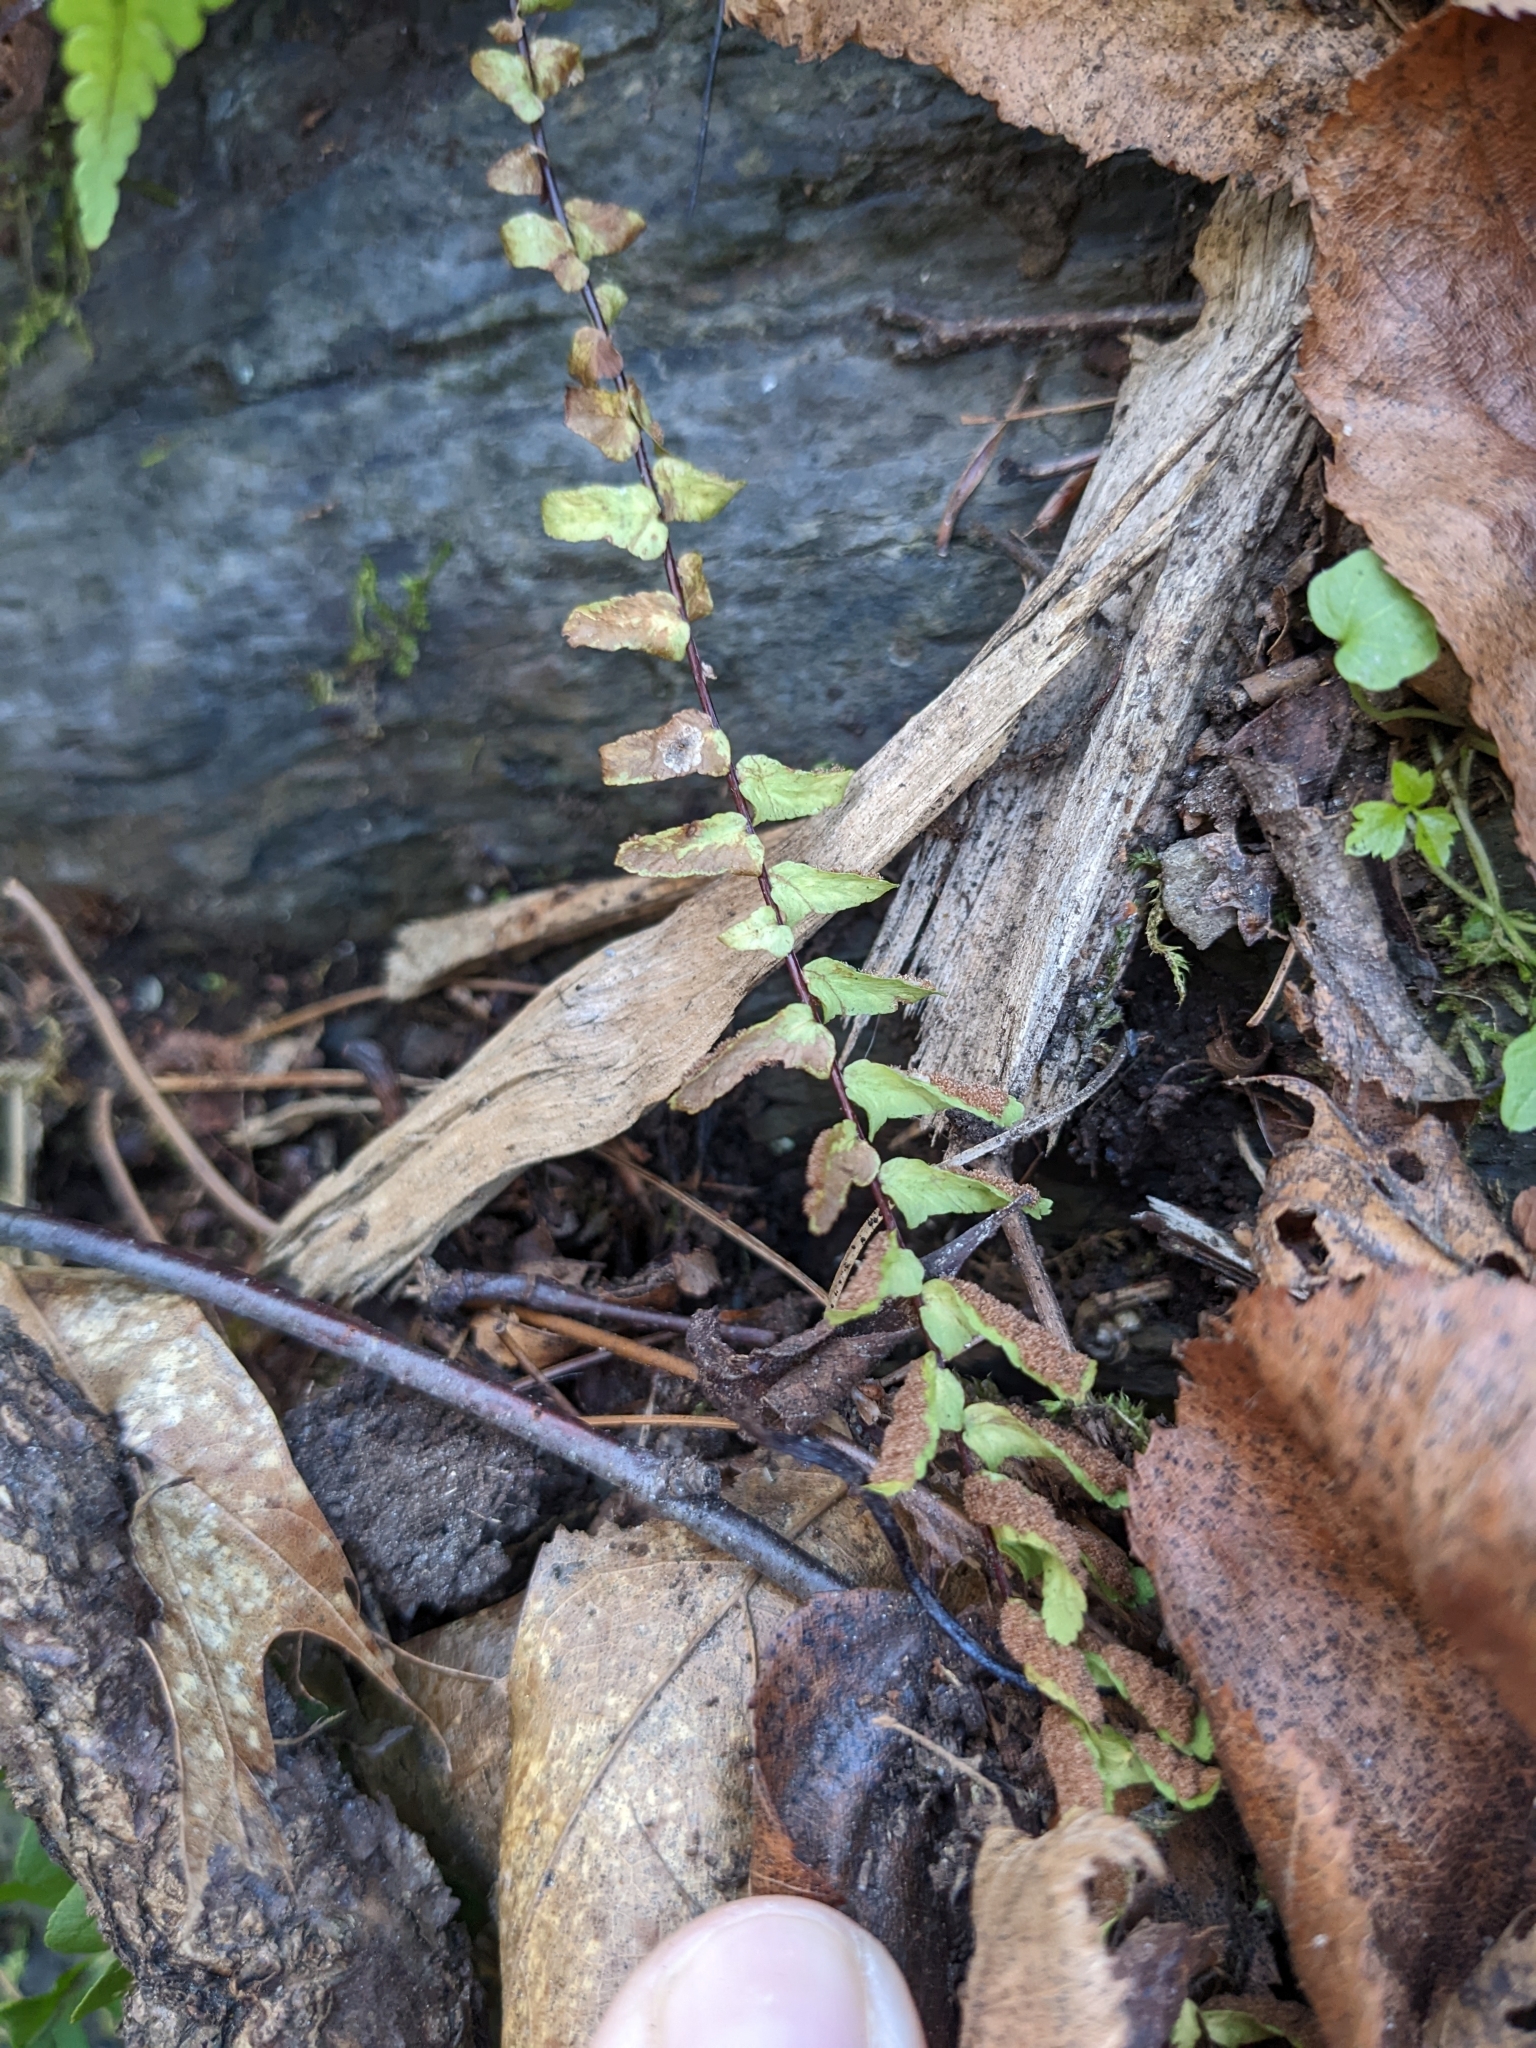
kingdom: Plantae
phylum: Tracheophyta
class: Polypodiopsida
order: Polypodiales
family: Aspleniaceae
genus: Asplenium
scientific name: Asplenium platyneuron
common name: Ebony spleenwort
